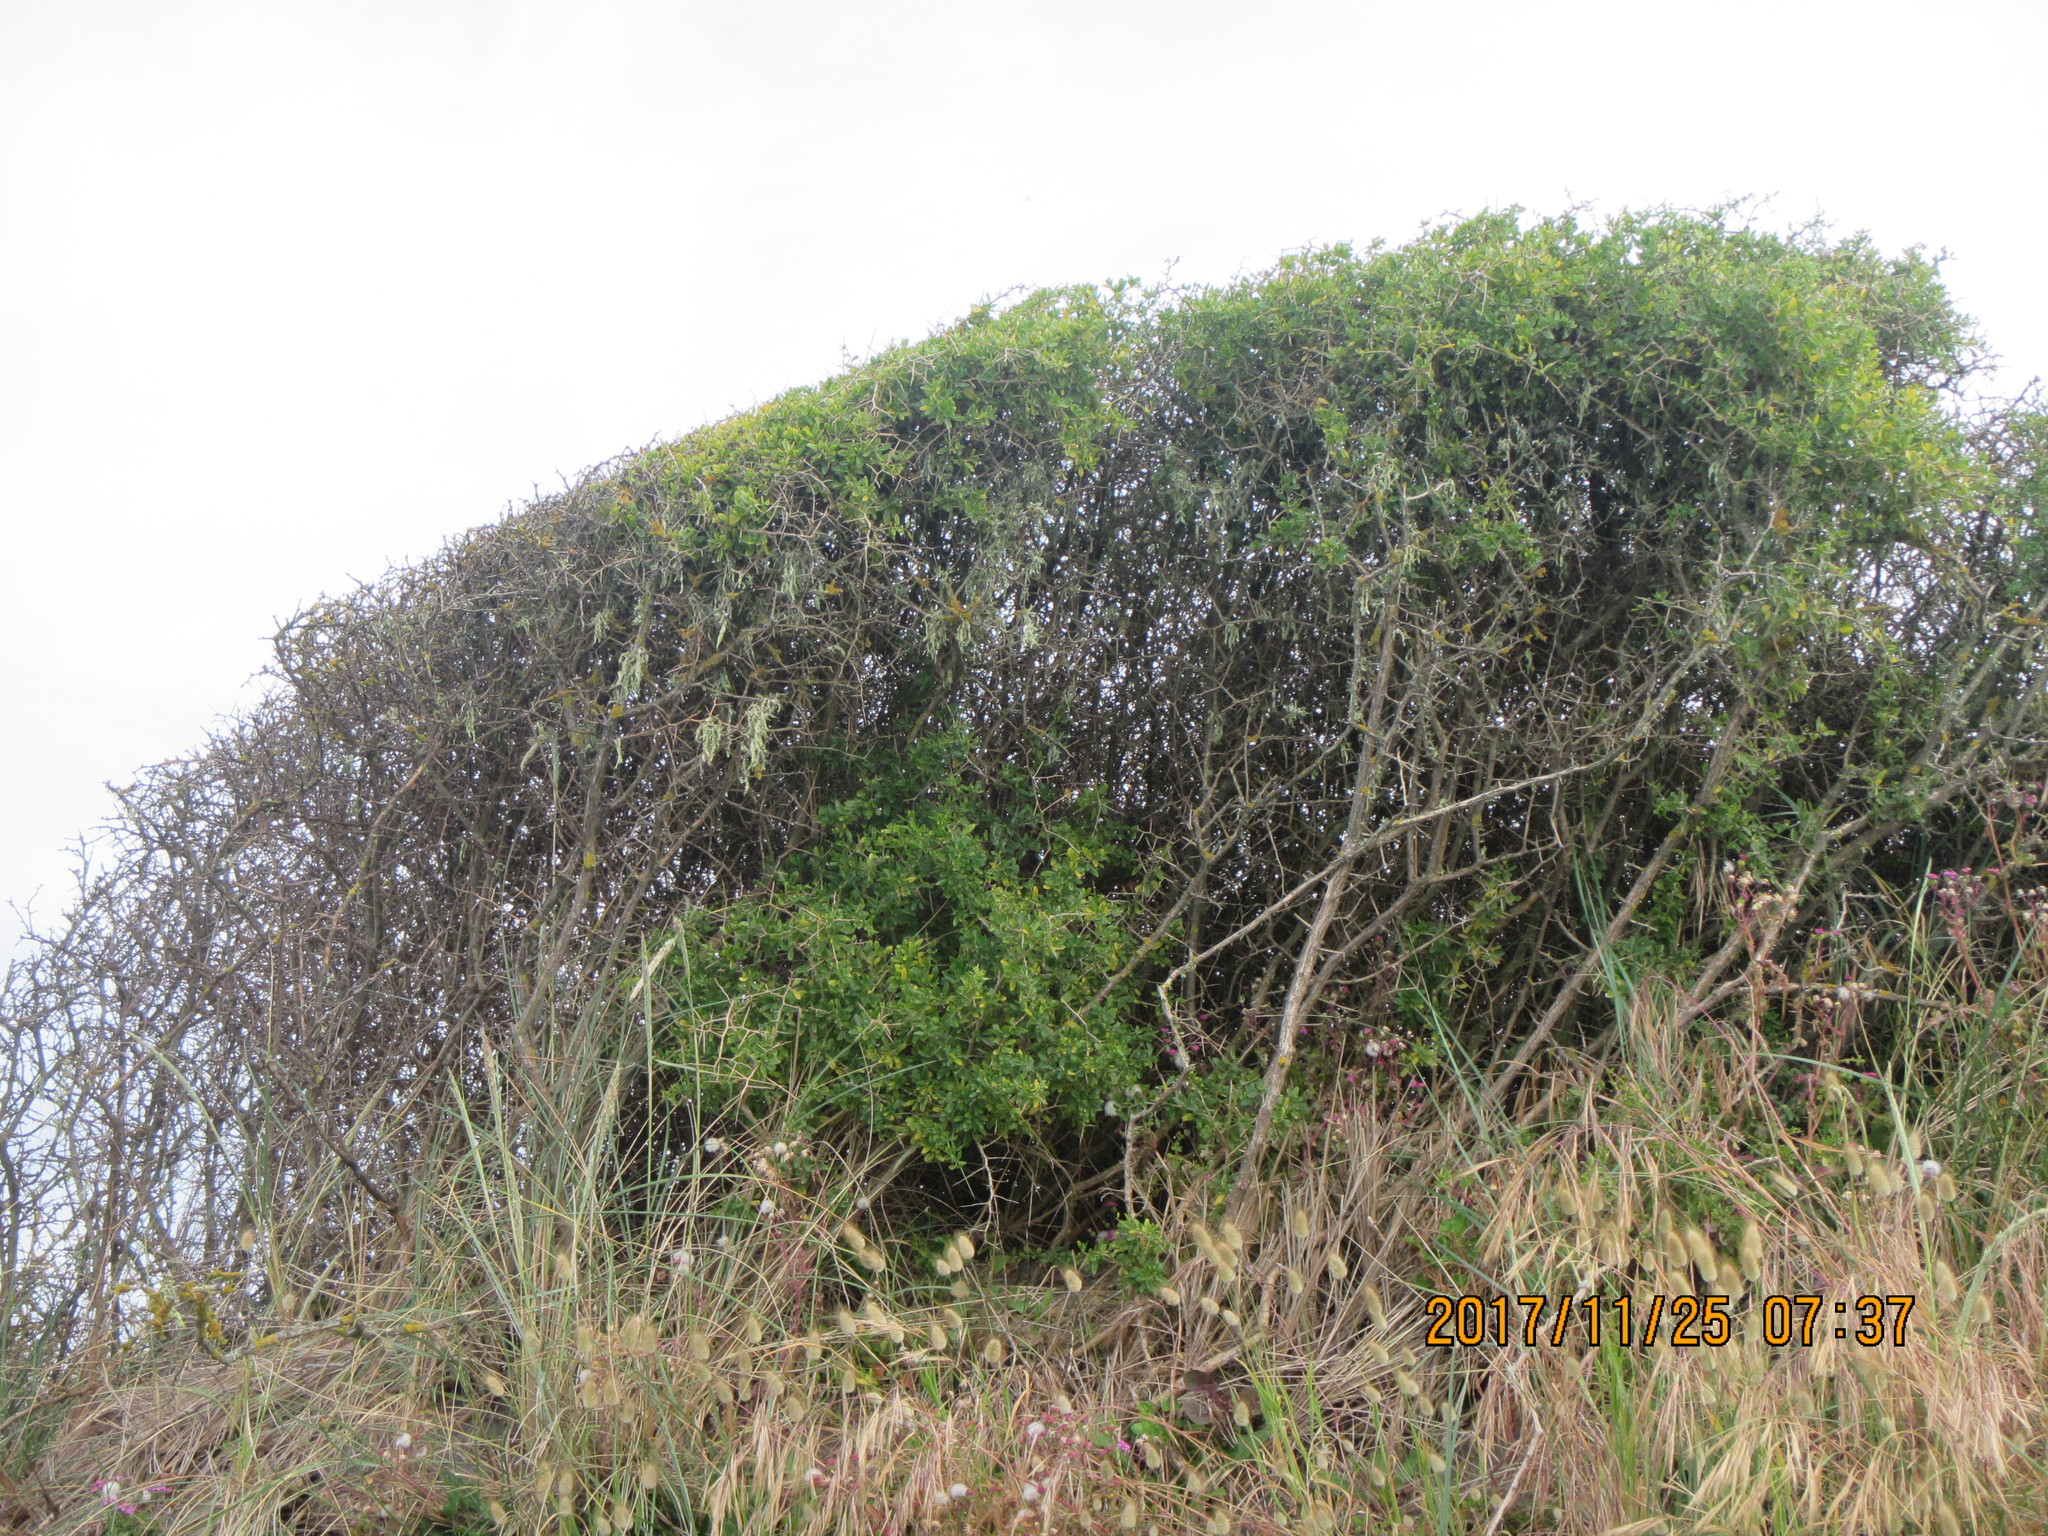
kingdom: Plantae
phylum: Tracheophyta
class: Magnoliopsida
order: Solanales
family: Solanaceae
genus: Lycium
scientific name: Lycium ferocissimum
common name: African boxthorn
